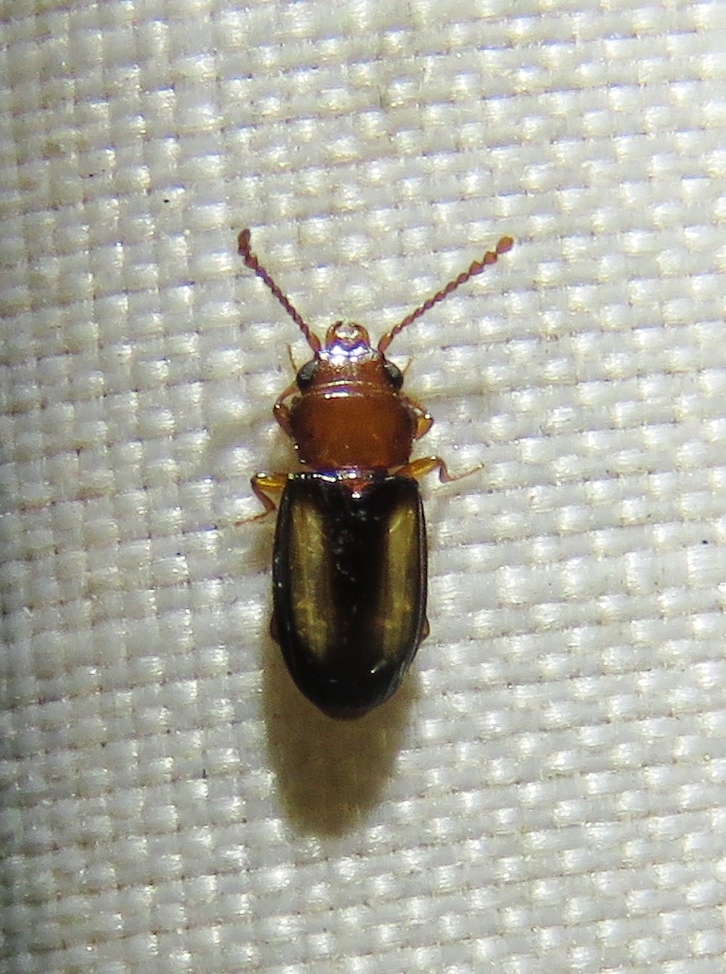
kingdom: Animalia
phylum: Arthropoda
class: Insecta
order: Coleoptera
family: Laemophloeidae
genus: Laemophloeus
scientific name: Laemophloeus terminalis
